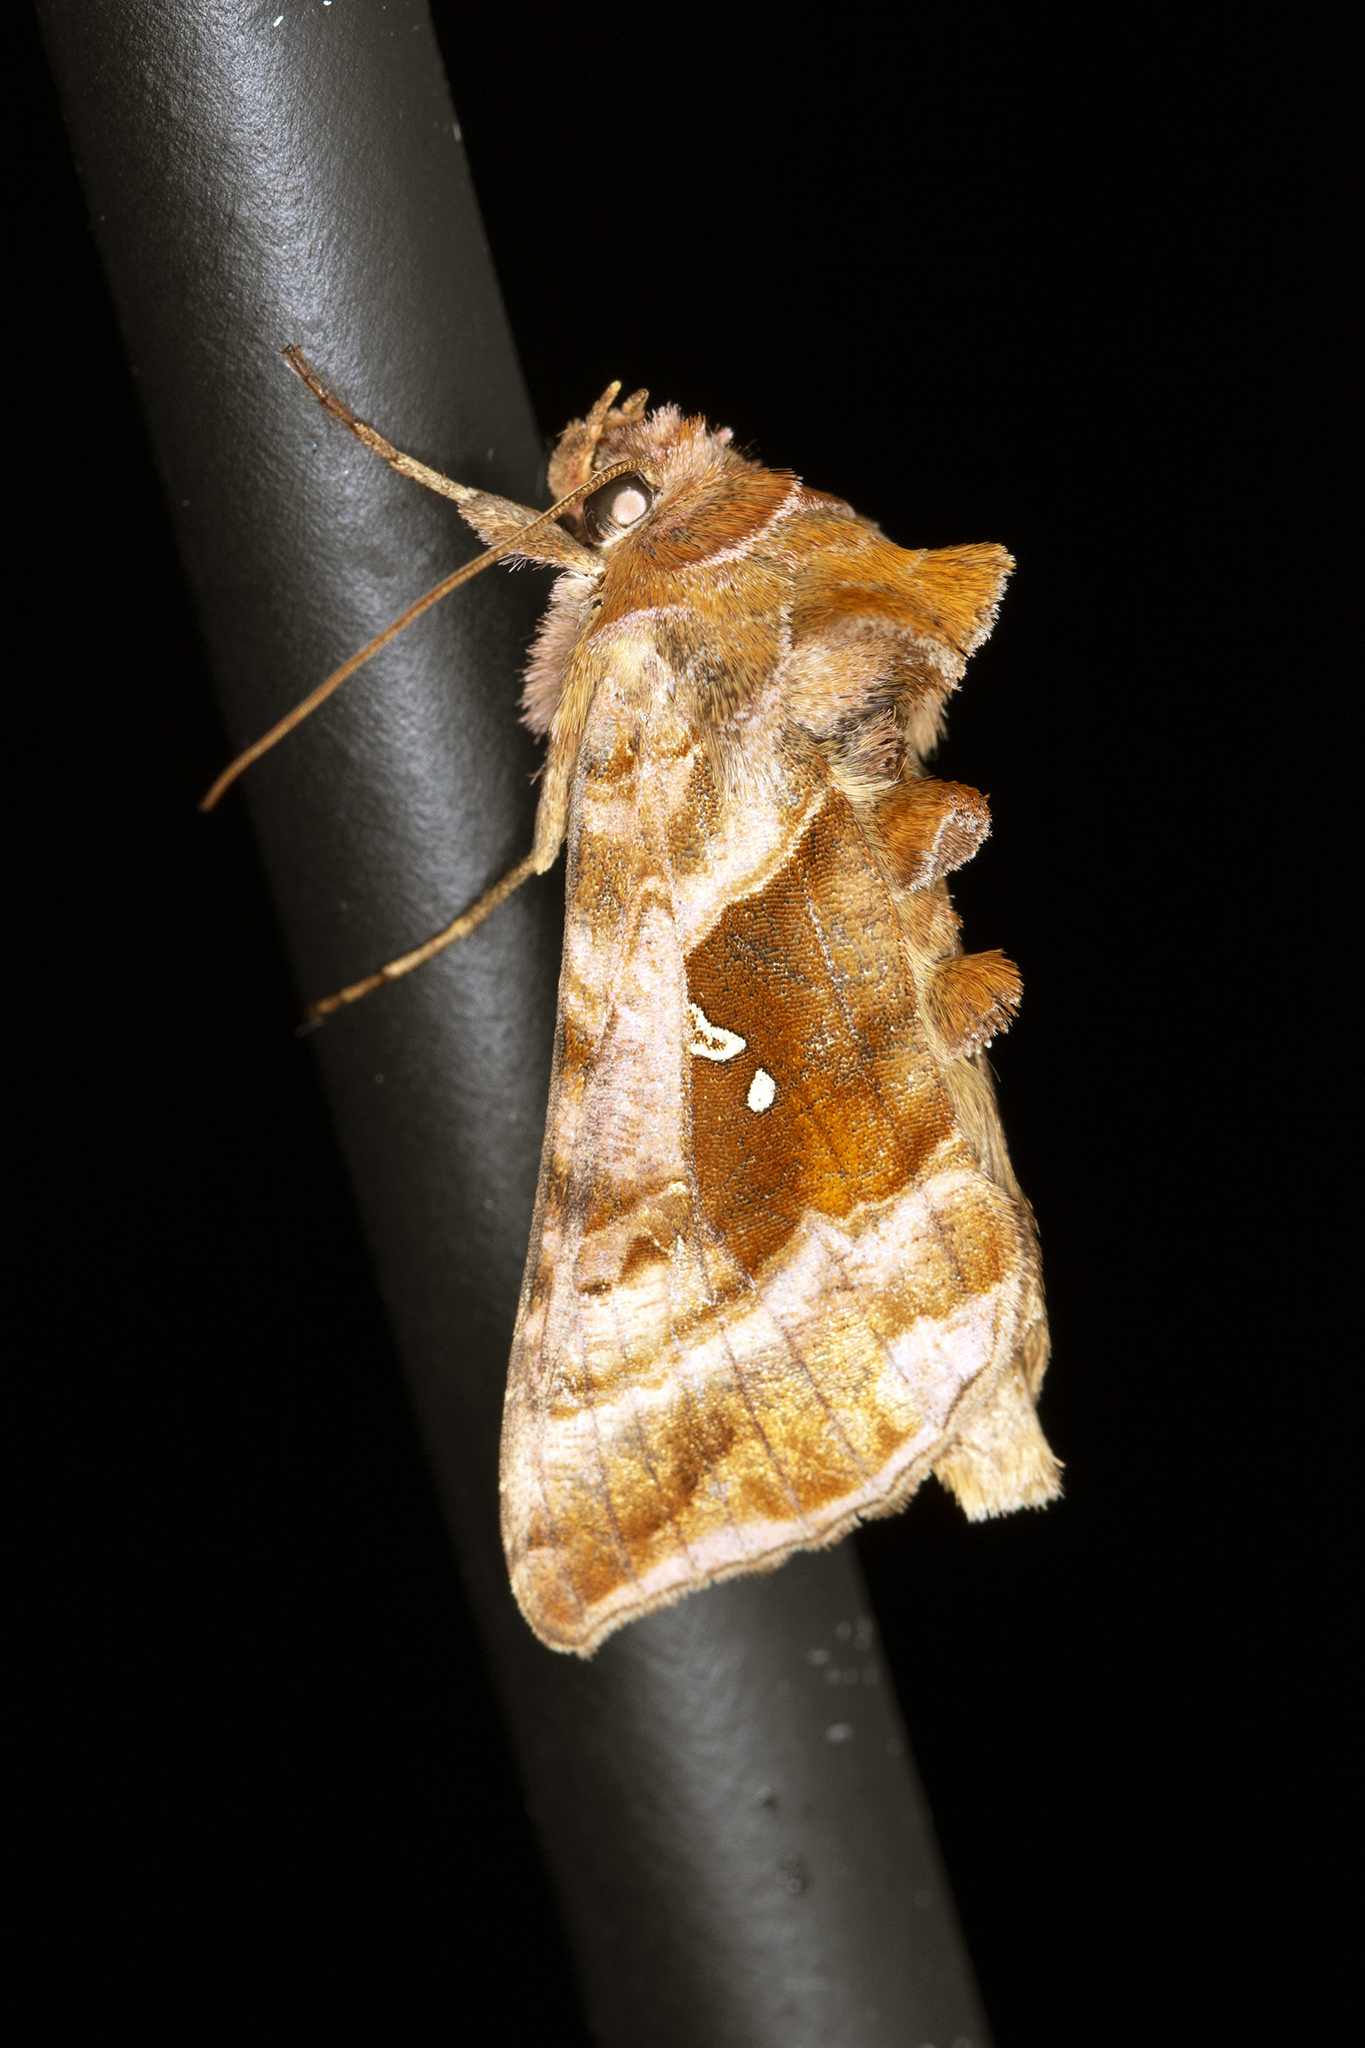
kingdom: Animalia
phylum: Arthropoda
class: Insecta
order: Lepidoptera
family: Noctuidae
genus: Autographa
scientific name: Autographa jota
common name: Plain golden y
